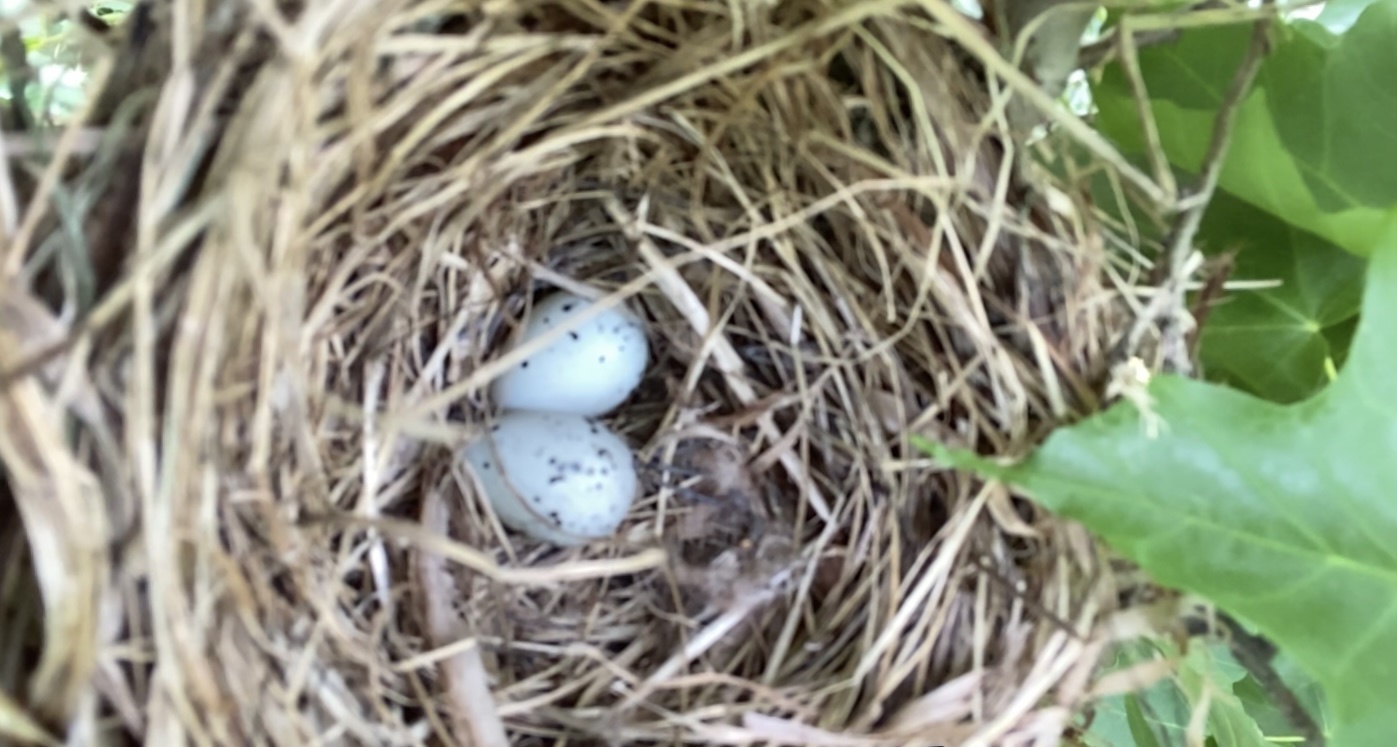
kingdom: Animalia
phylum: Chordata
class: Aves
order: Passeriformes
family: Bombycillidae
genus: Bombycilla
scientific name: Bombycilla cedrorum
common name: Cedar waxwing
